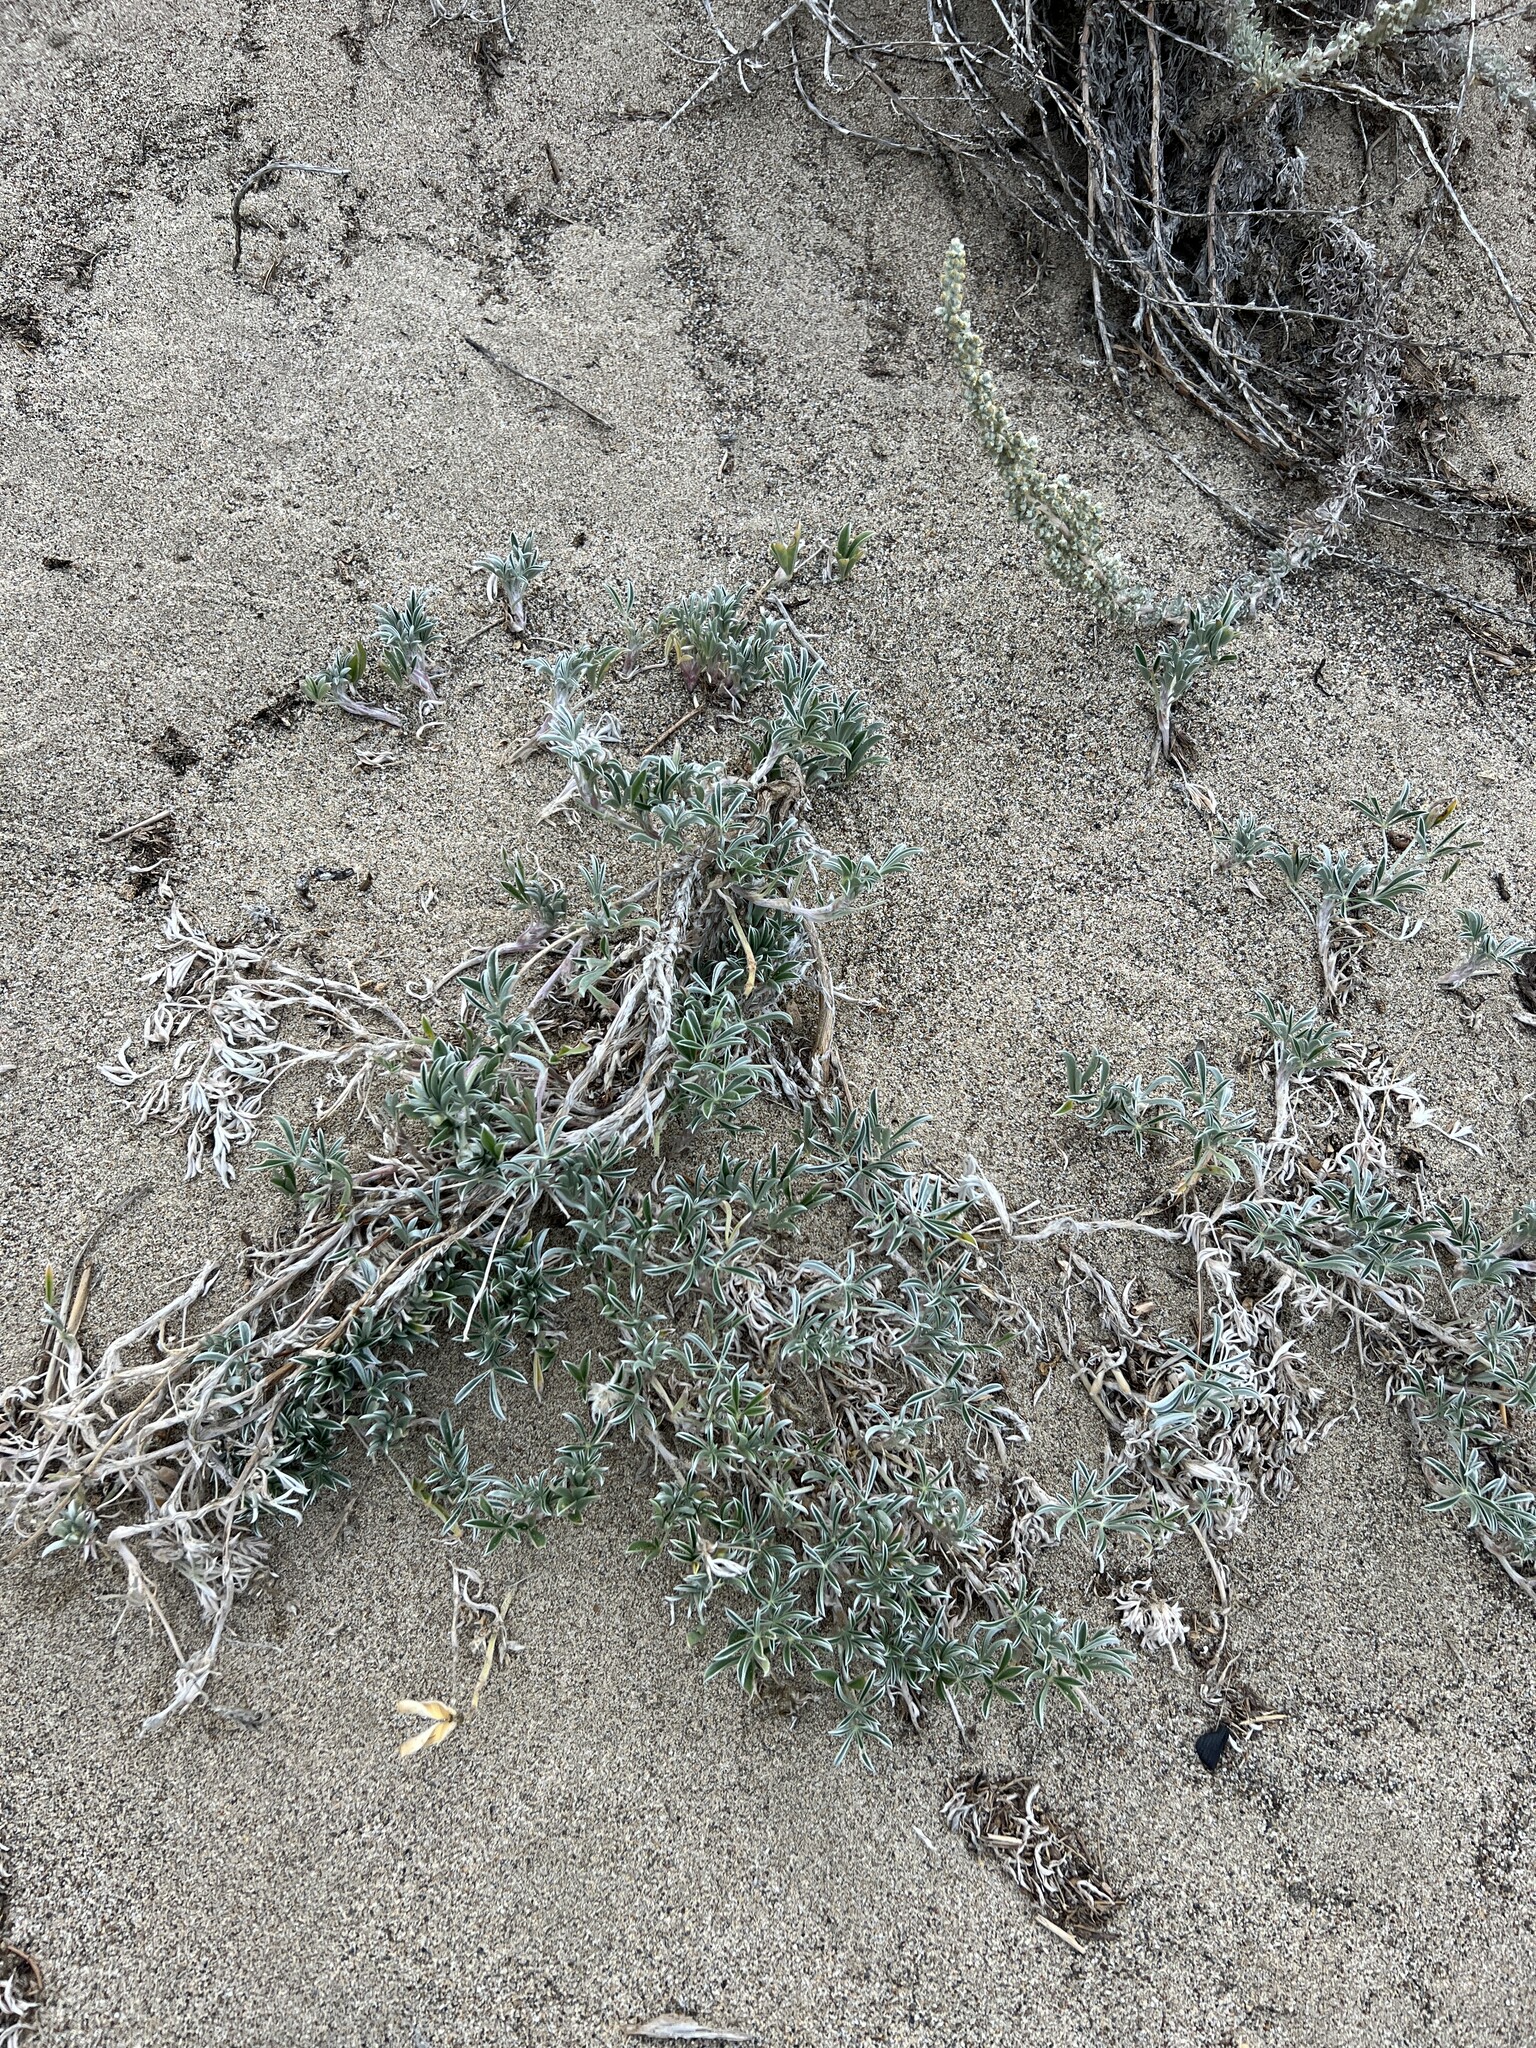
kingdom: Plantae
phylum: Tracheophyta
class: Magnoliopsida
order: Fabales
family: Fabaceae
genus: Lupinus
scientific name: Lupinus tidestromii
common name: Clover lupine
